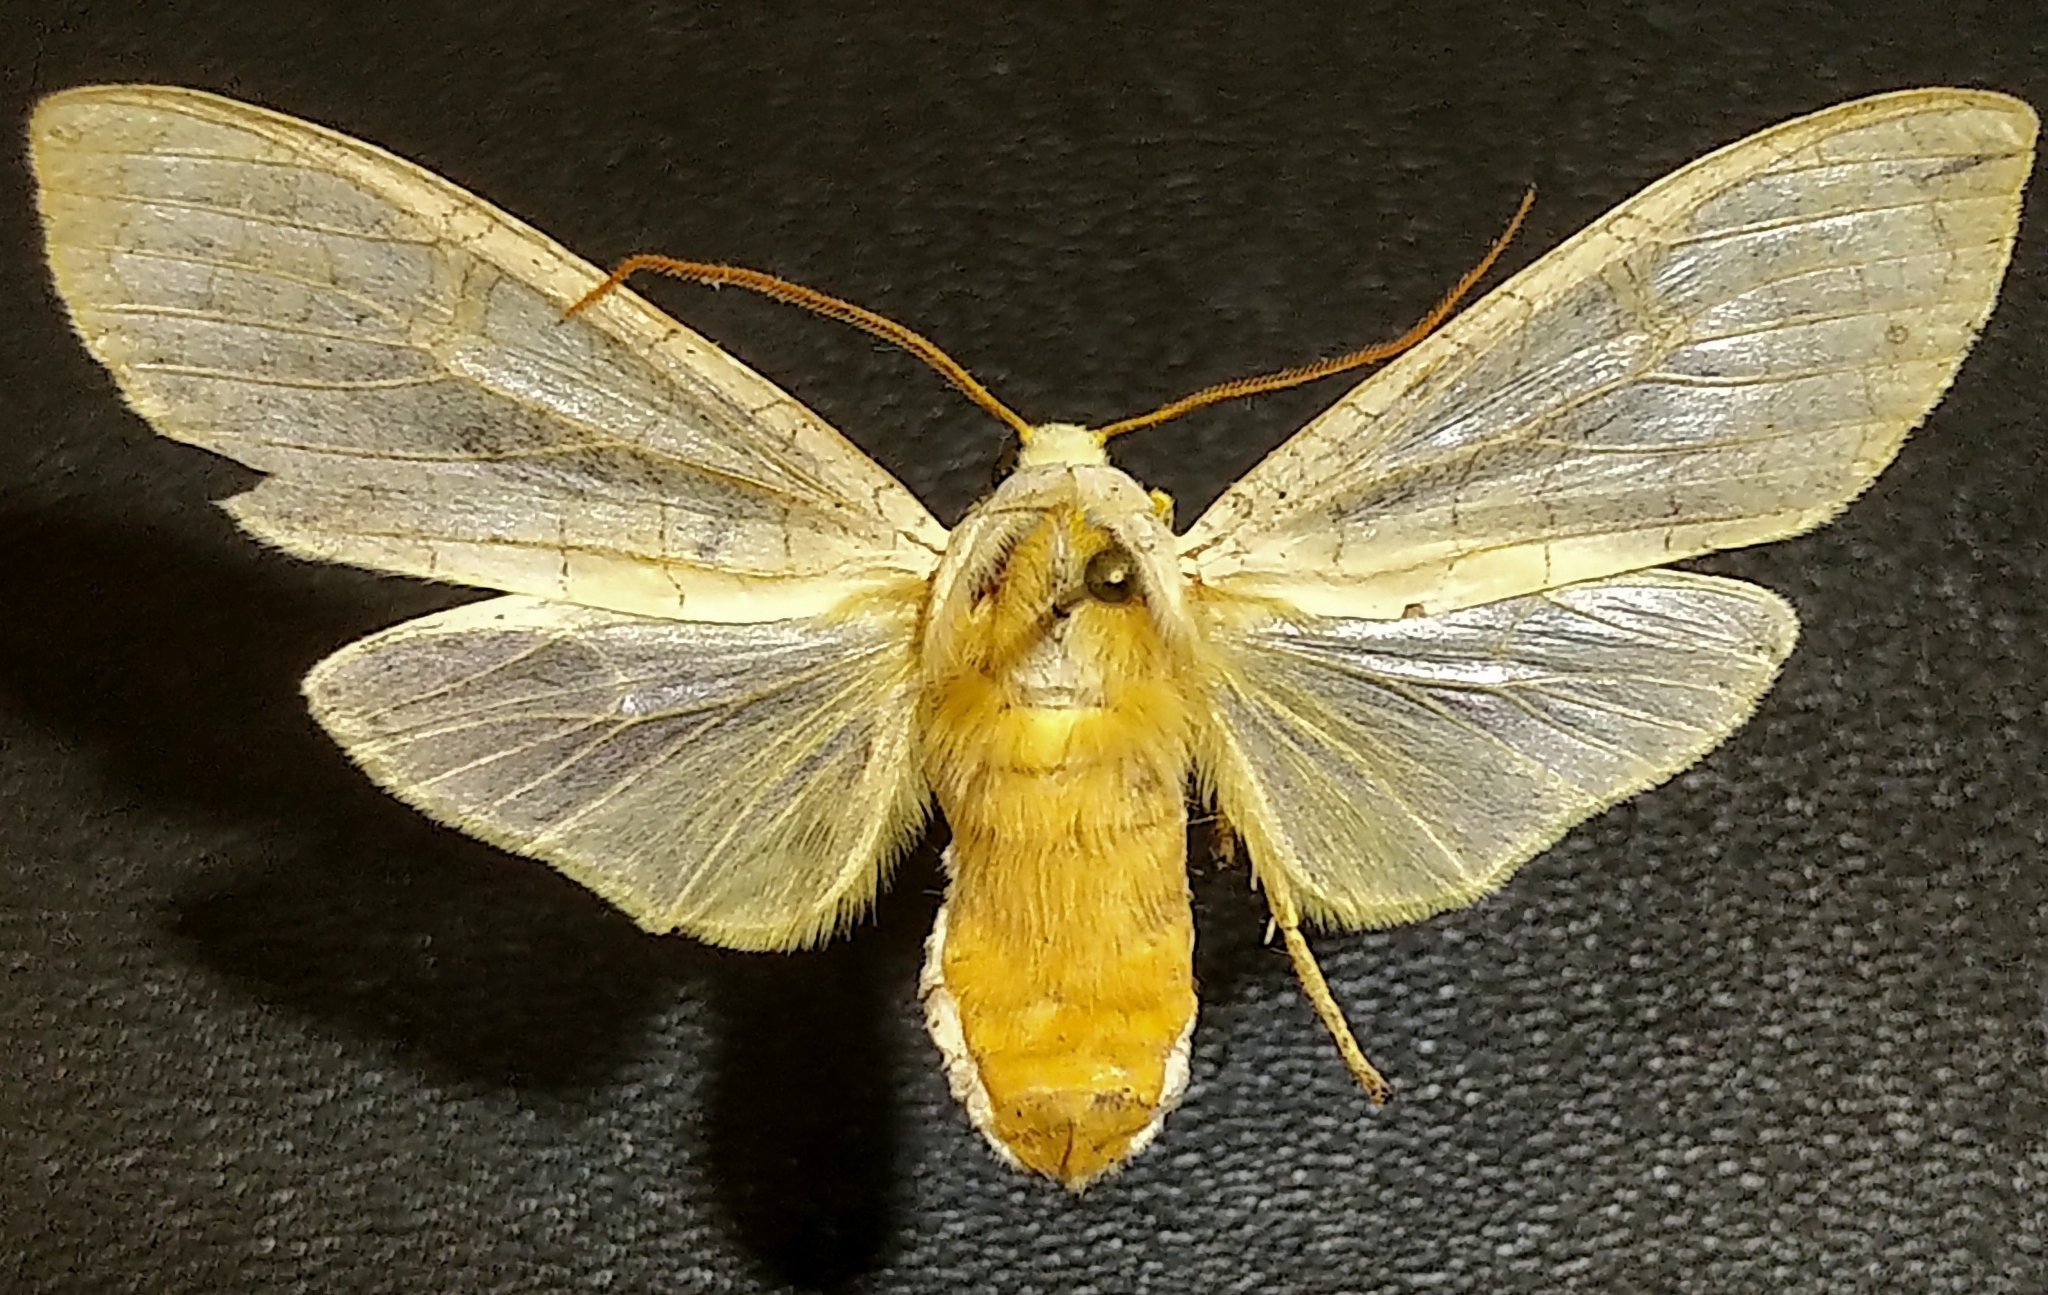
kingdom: Animalia
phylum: Arthropoda
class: Insecta
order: Lepidoptera
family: Erebidae
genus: Halysidota
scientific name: Halysidota tessellaris
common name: Banded tussock moth
